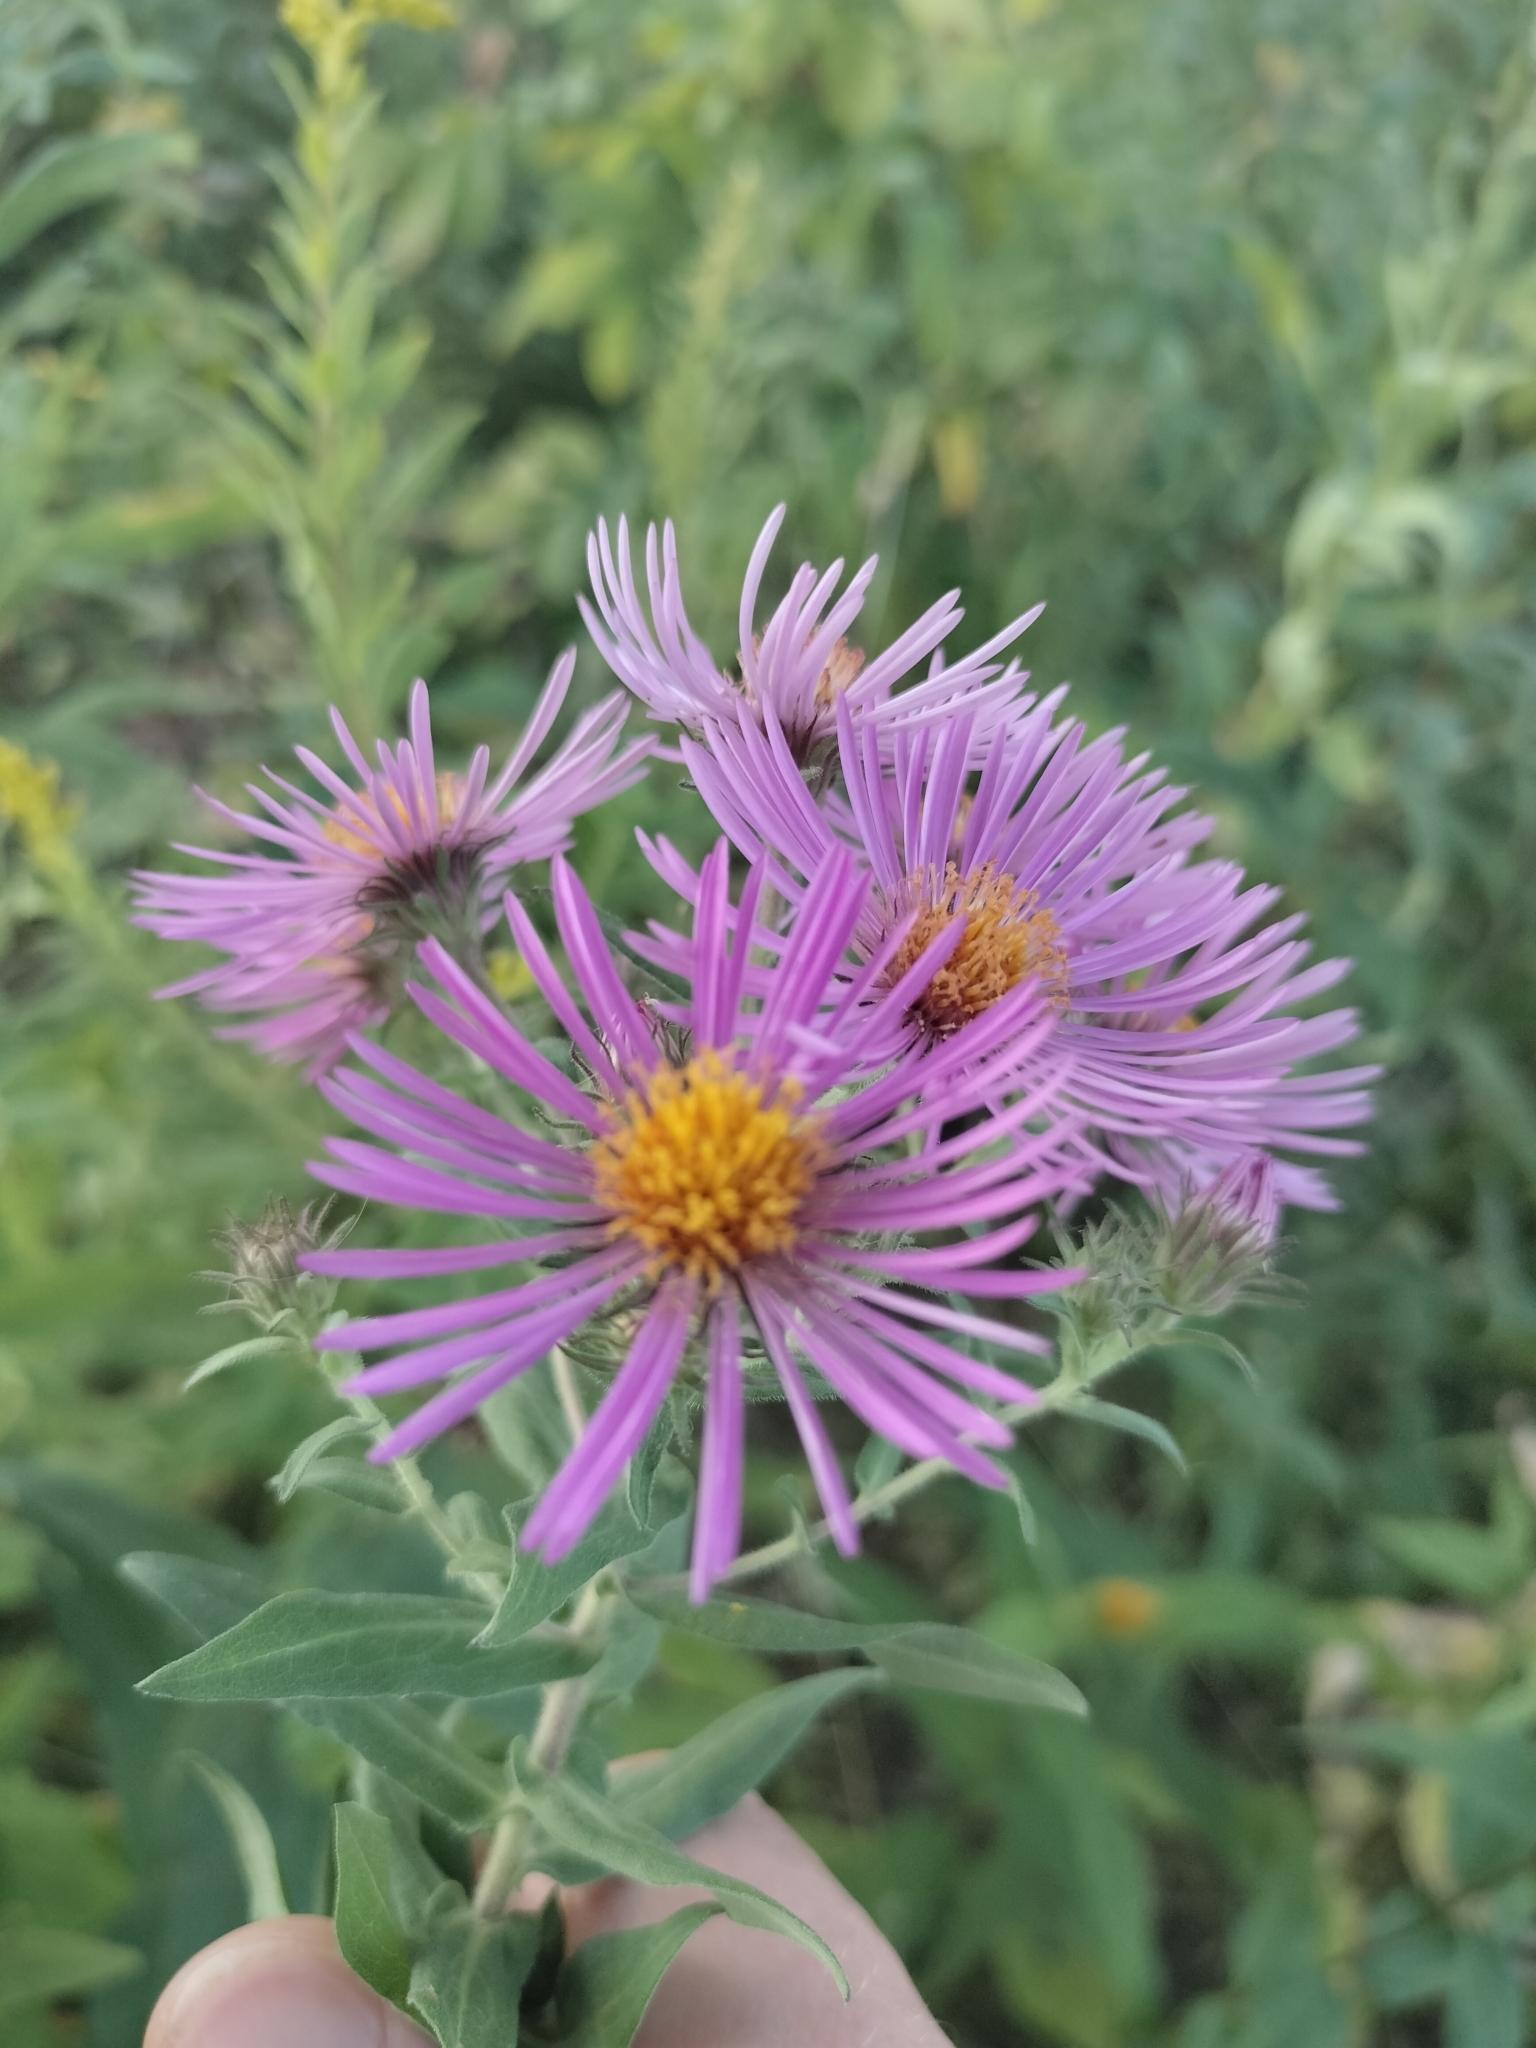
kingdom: Plantae
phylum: Tracheophyta
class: Magnoliopsida
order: Asterales
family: Asteraceae
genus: Symphyotrichum
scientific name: Symphyotrichum novae-angliae
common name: Michaelmas daisy
